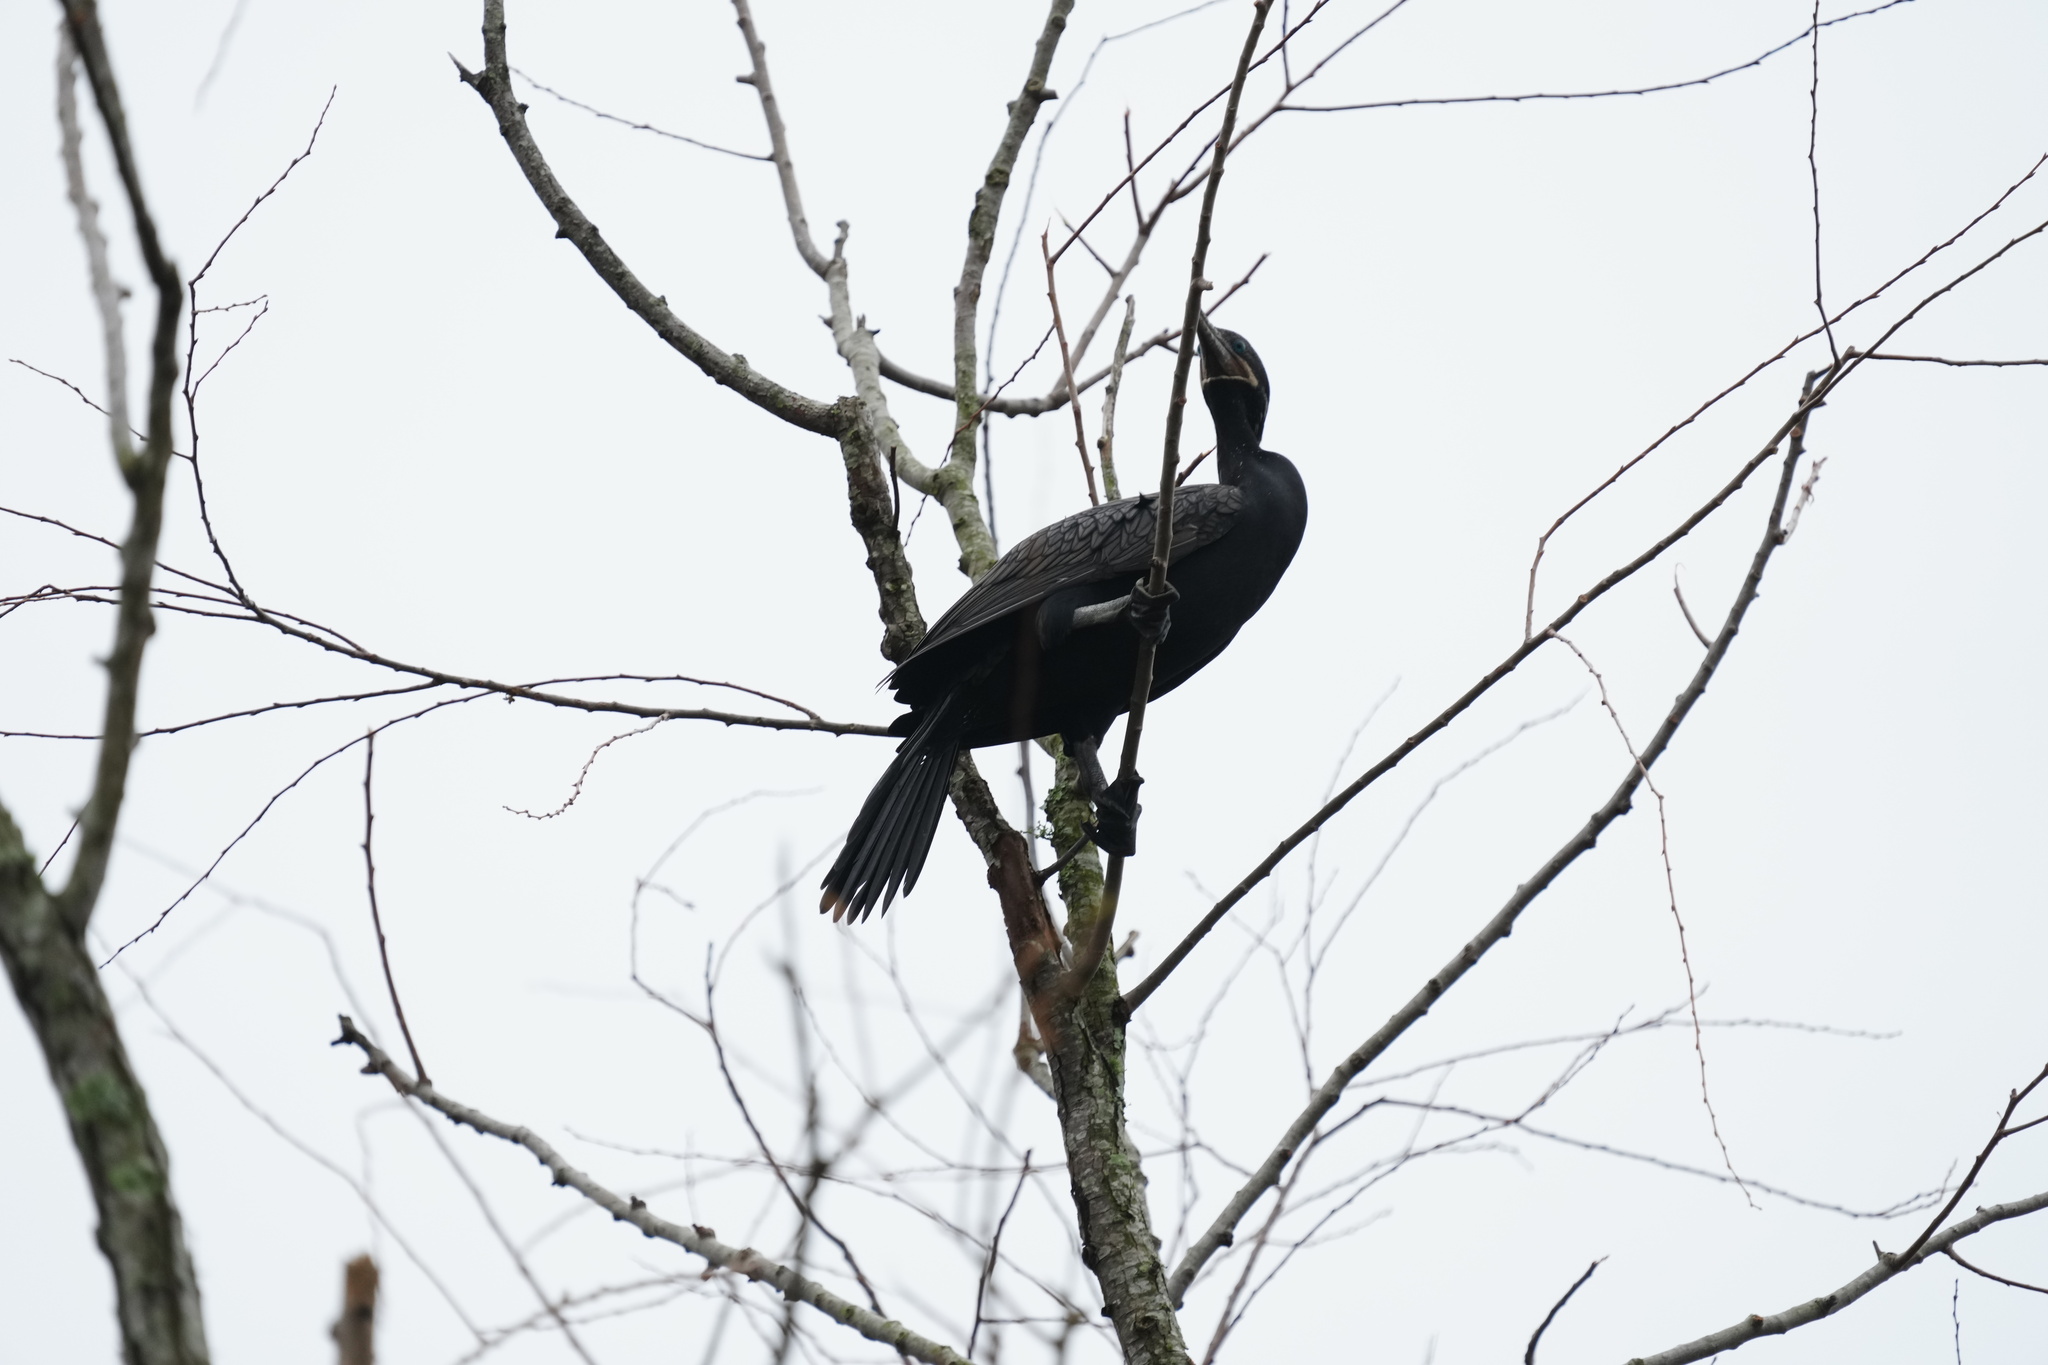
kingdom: Animalia
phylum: Chordata
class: Aves
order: Suliformes
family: Phalacrocoracidae
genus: Phalacrocorax
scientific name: Phalacrocorax brasilianus
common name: Neotropic cormorant
